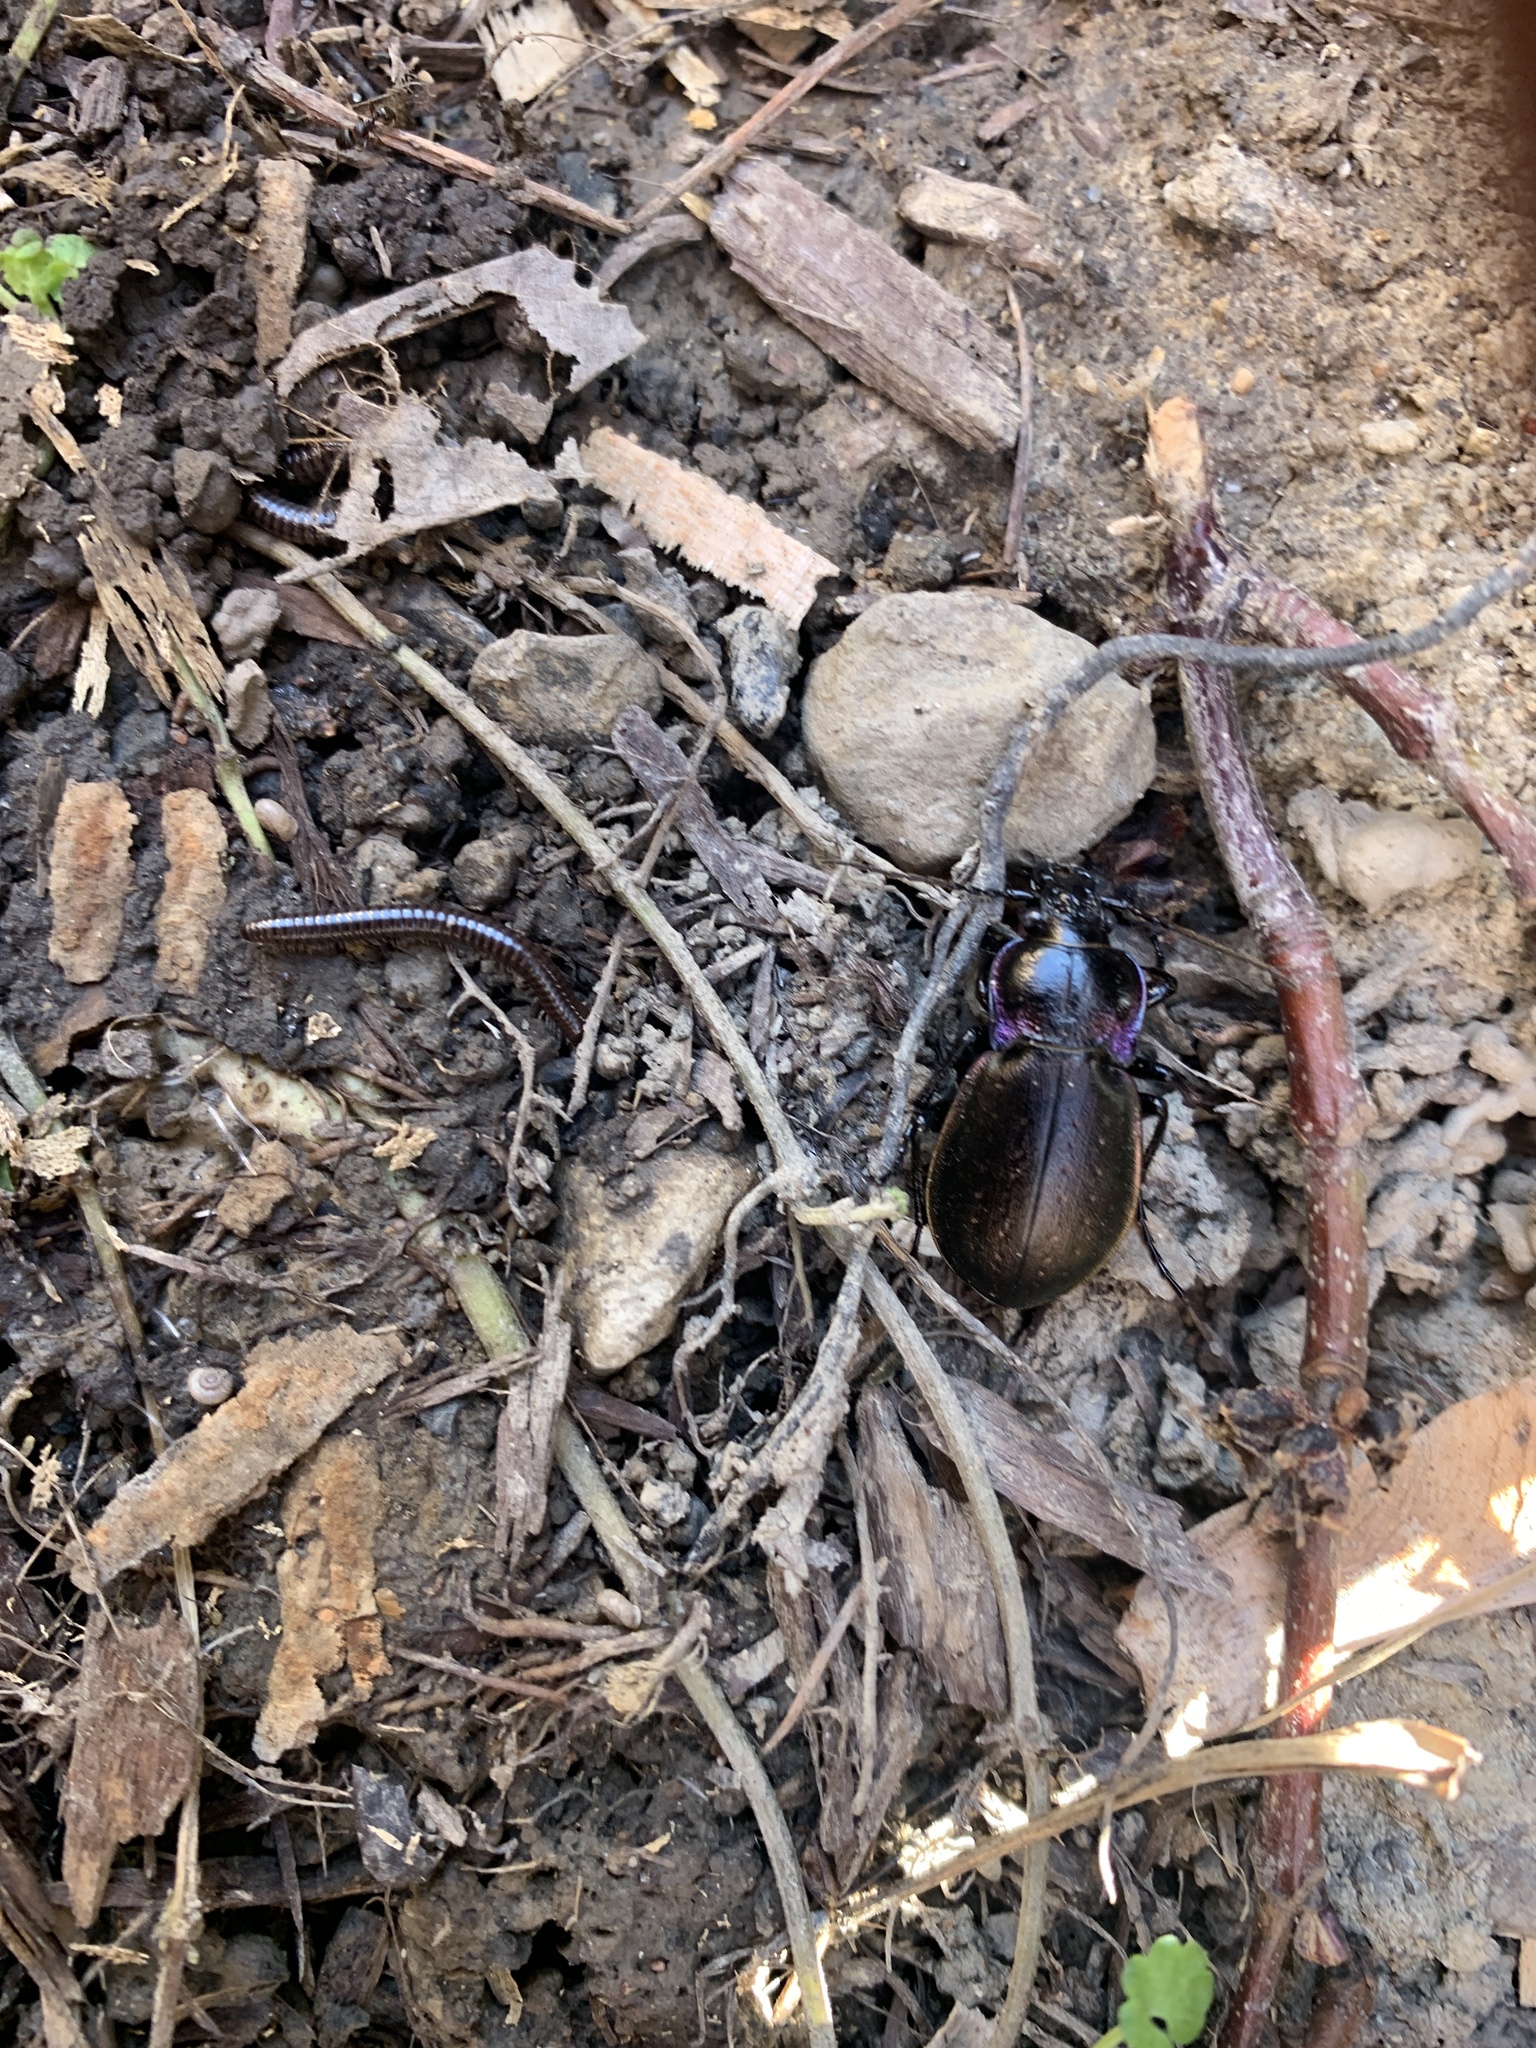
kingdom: Animalia
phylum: Arthropoda
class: Insecta
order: Coleoptera
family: Carabidae
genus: Carabus
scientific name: Carabus nemoralis
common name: European ground beetle
